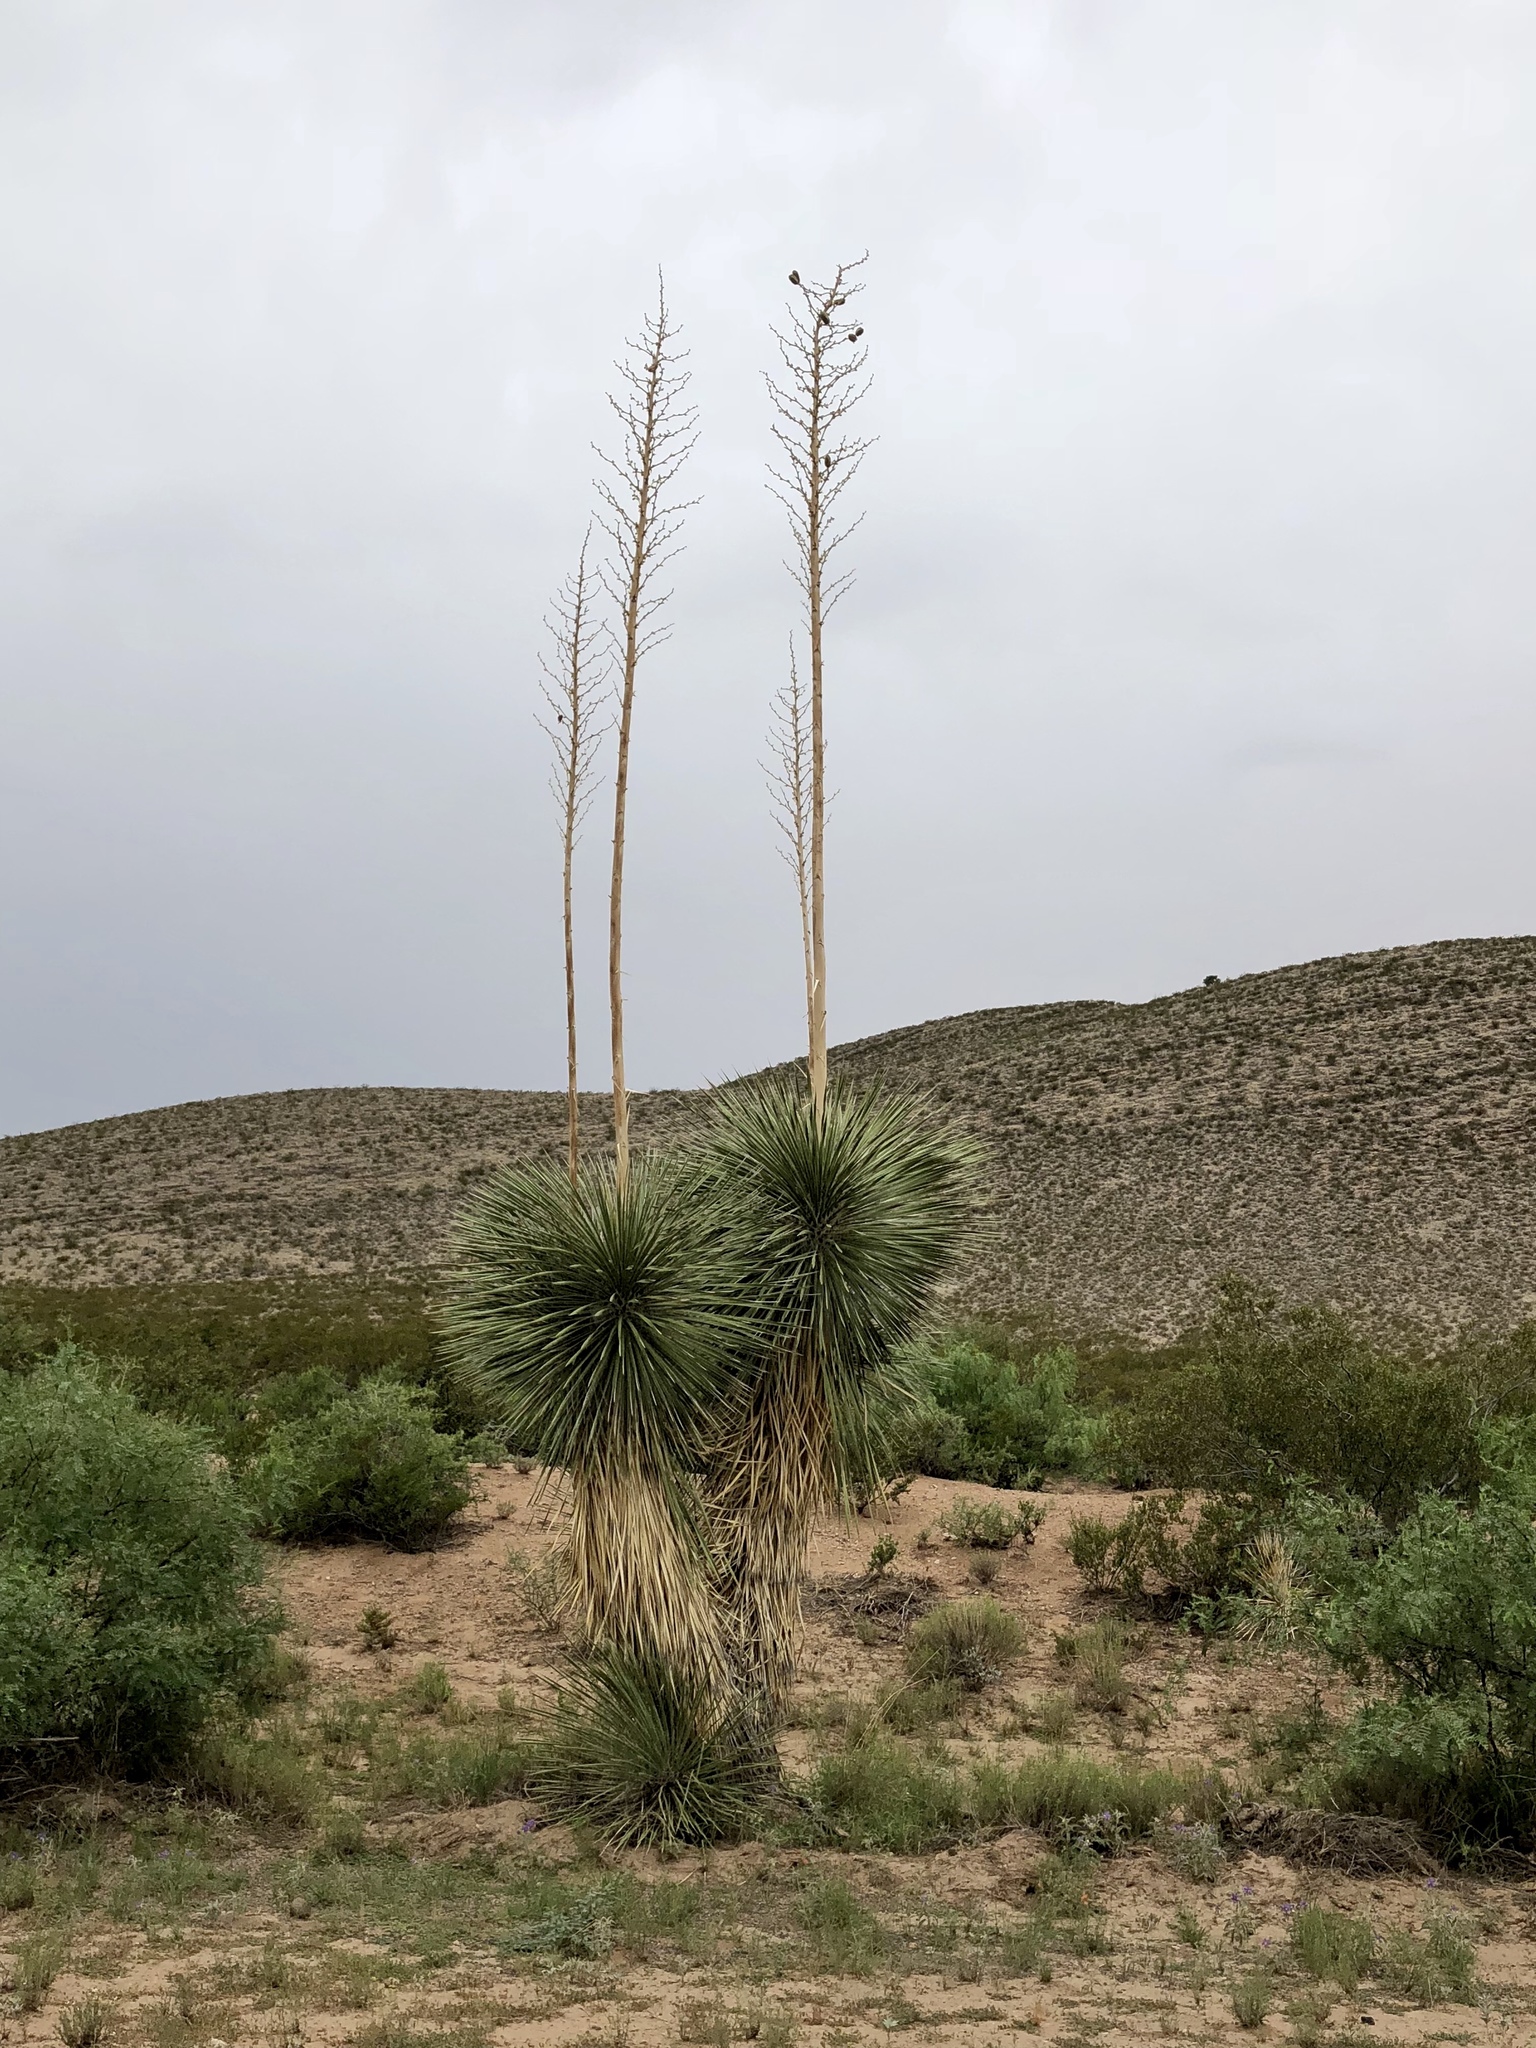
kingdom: Plantae
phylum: Tracheophyta
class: Liliopsida
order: Asparagales
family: Asparagaceae
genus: Yucca
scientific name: Yucca elata
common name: Palmella
